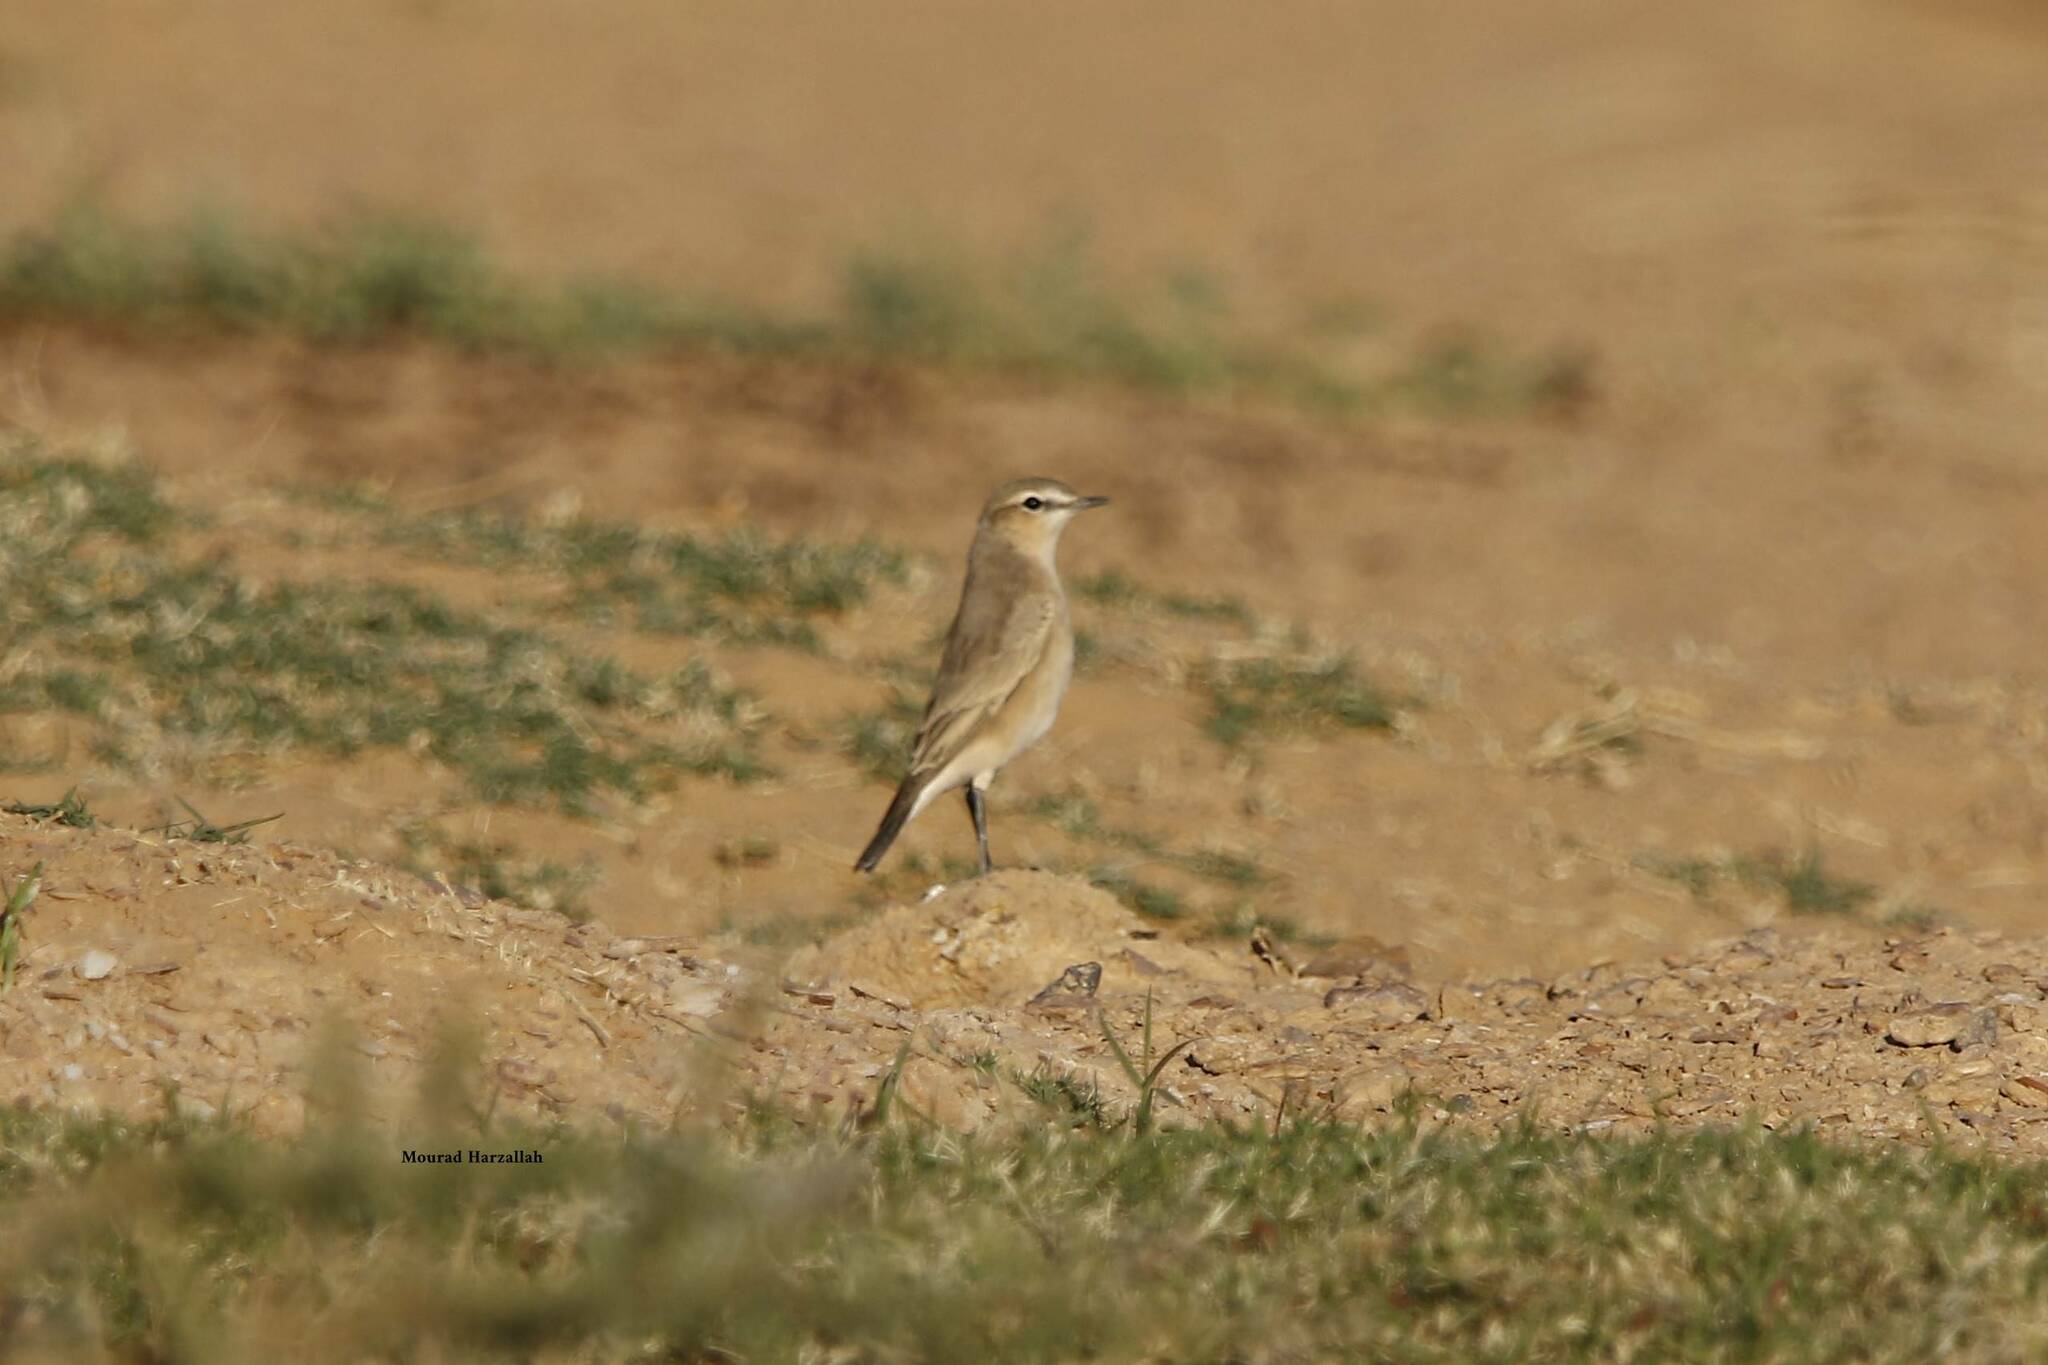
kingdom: Animalia
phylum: Chordata
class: Aves
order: Passeriformes
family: Muscicapidae
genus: Oenanthe
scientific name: Oenanthe isabellina
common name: Isabelline wheatear
